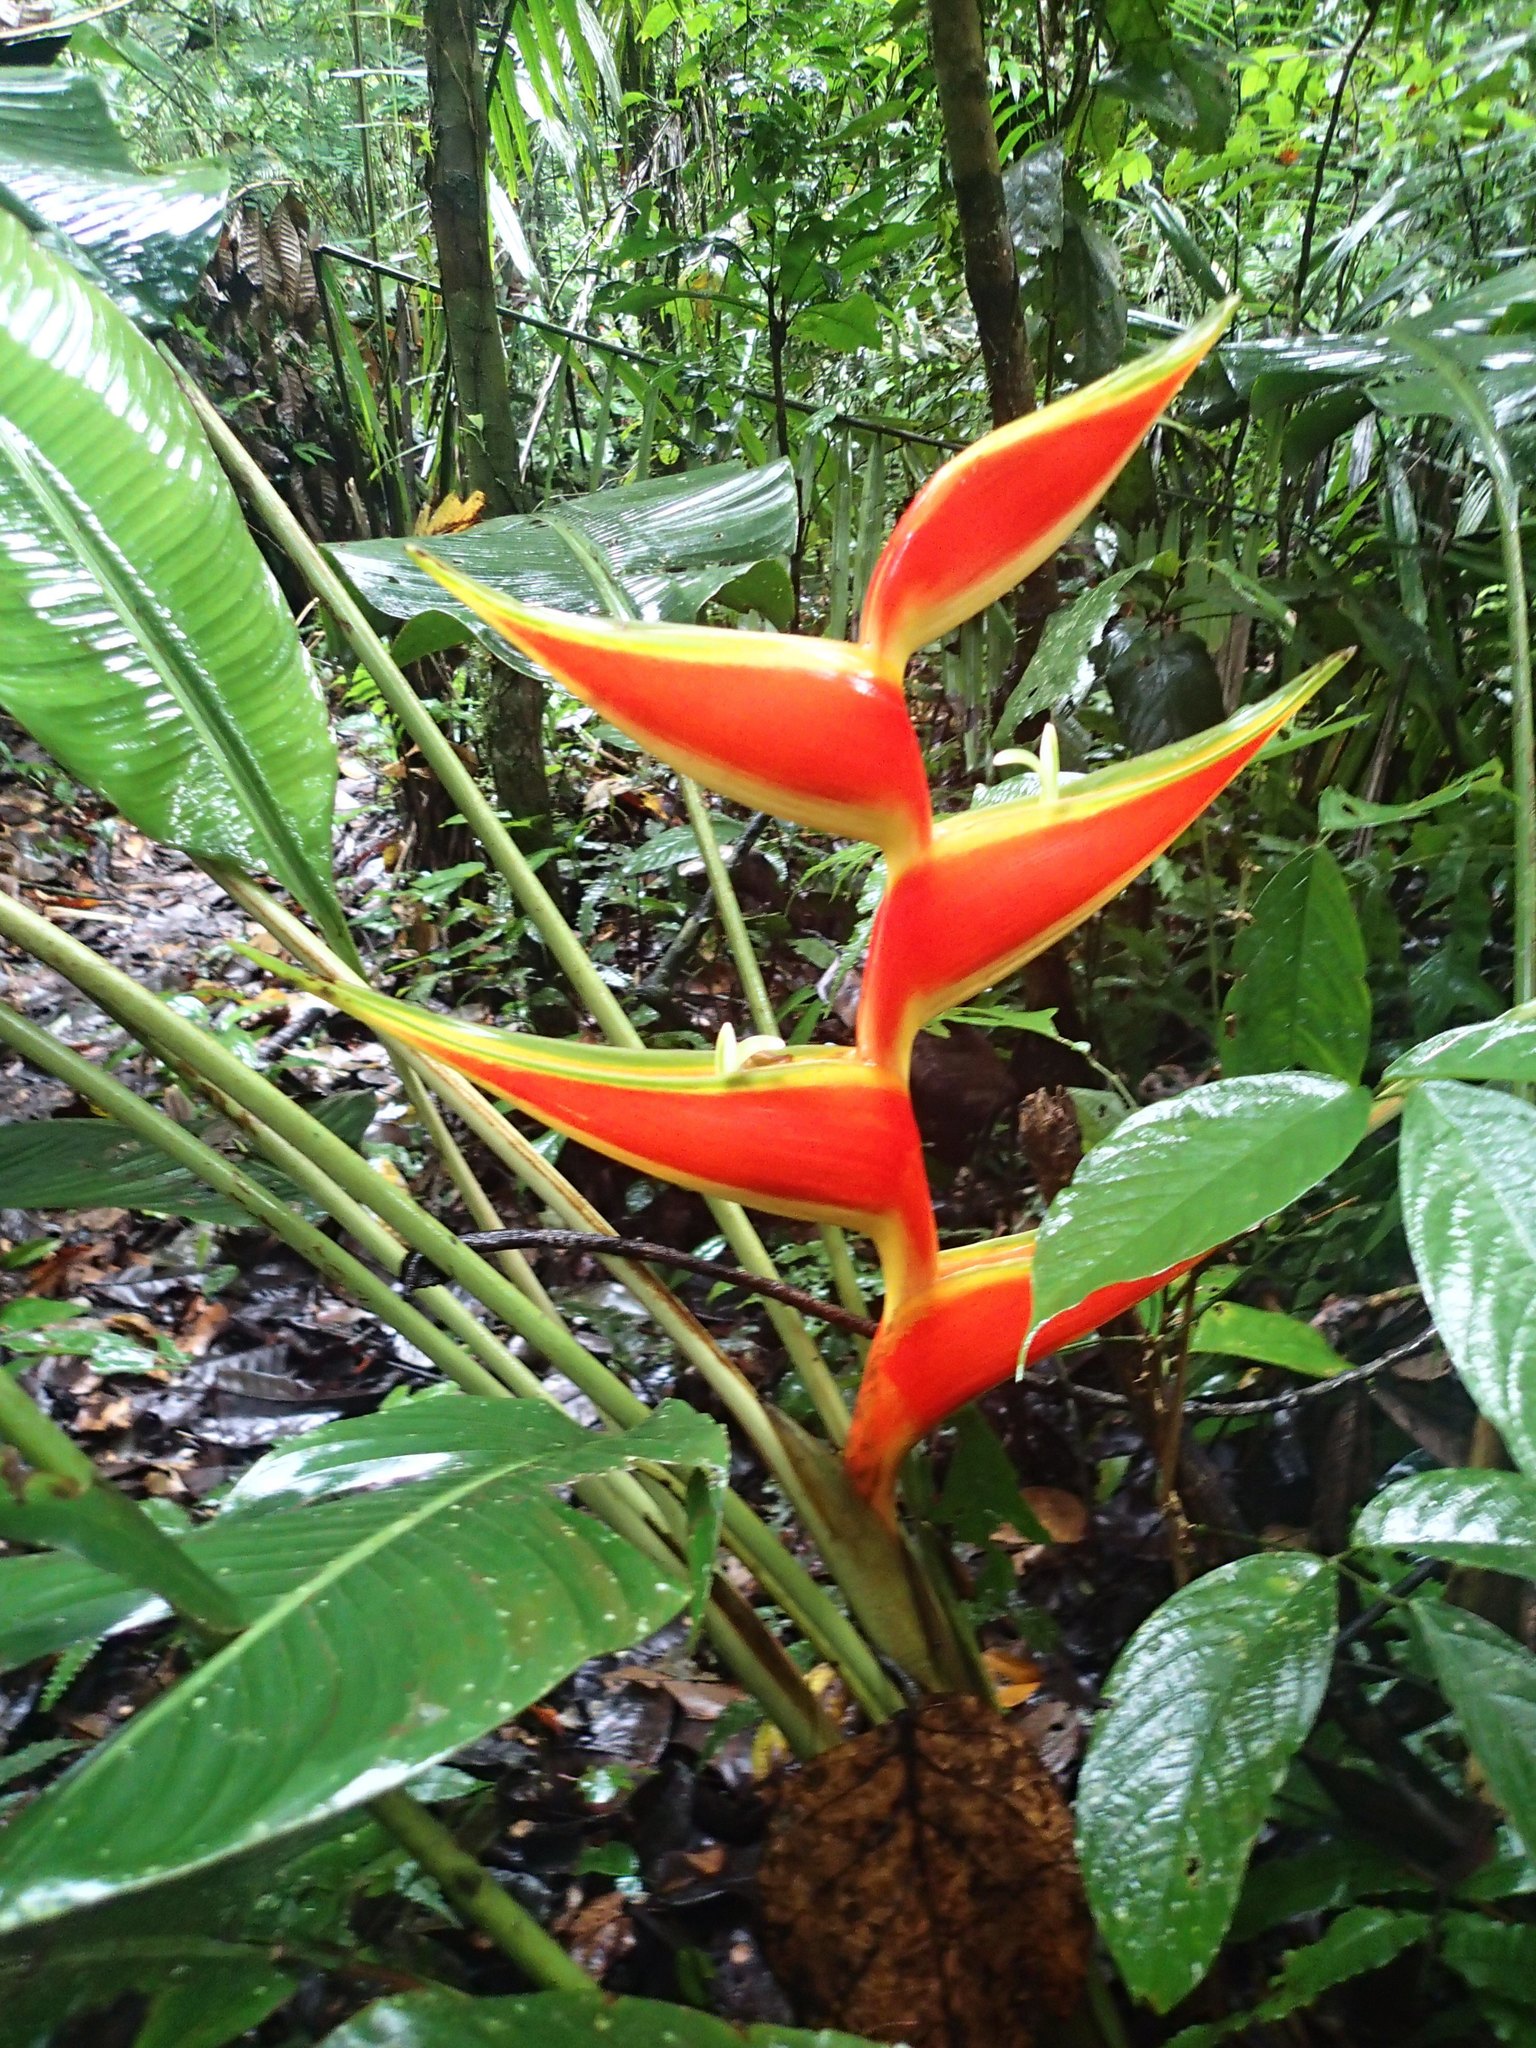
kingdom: Plantae
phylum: Tracheophyta
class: Liliopsida
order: Zingiberales
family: Heliconiaceae
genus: Heliconia
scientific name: Heliconia bihai
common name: Macaw flower
